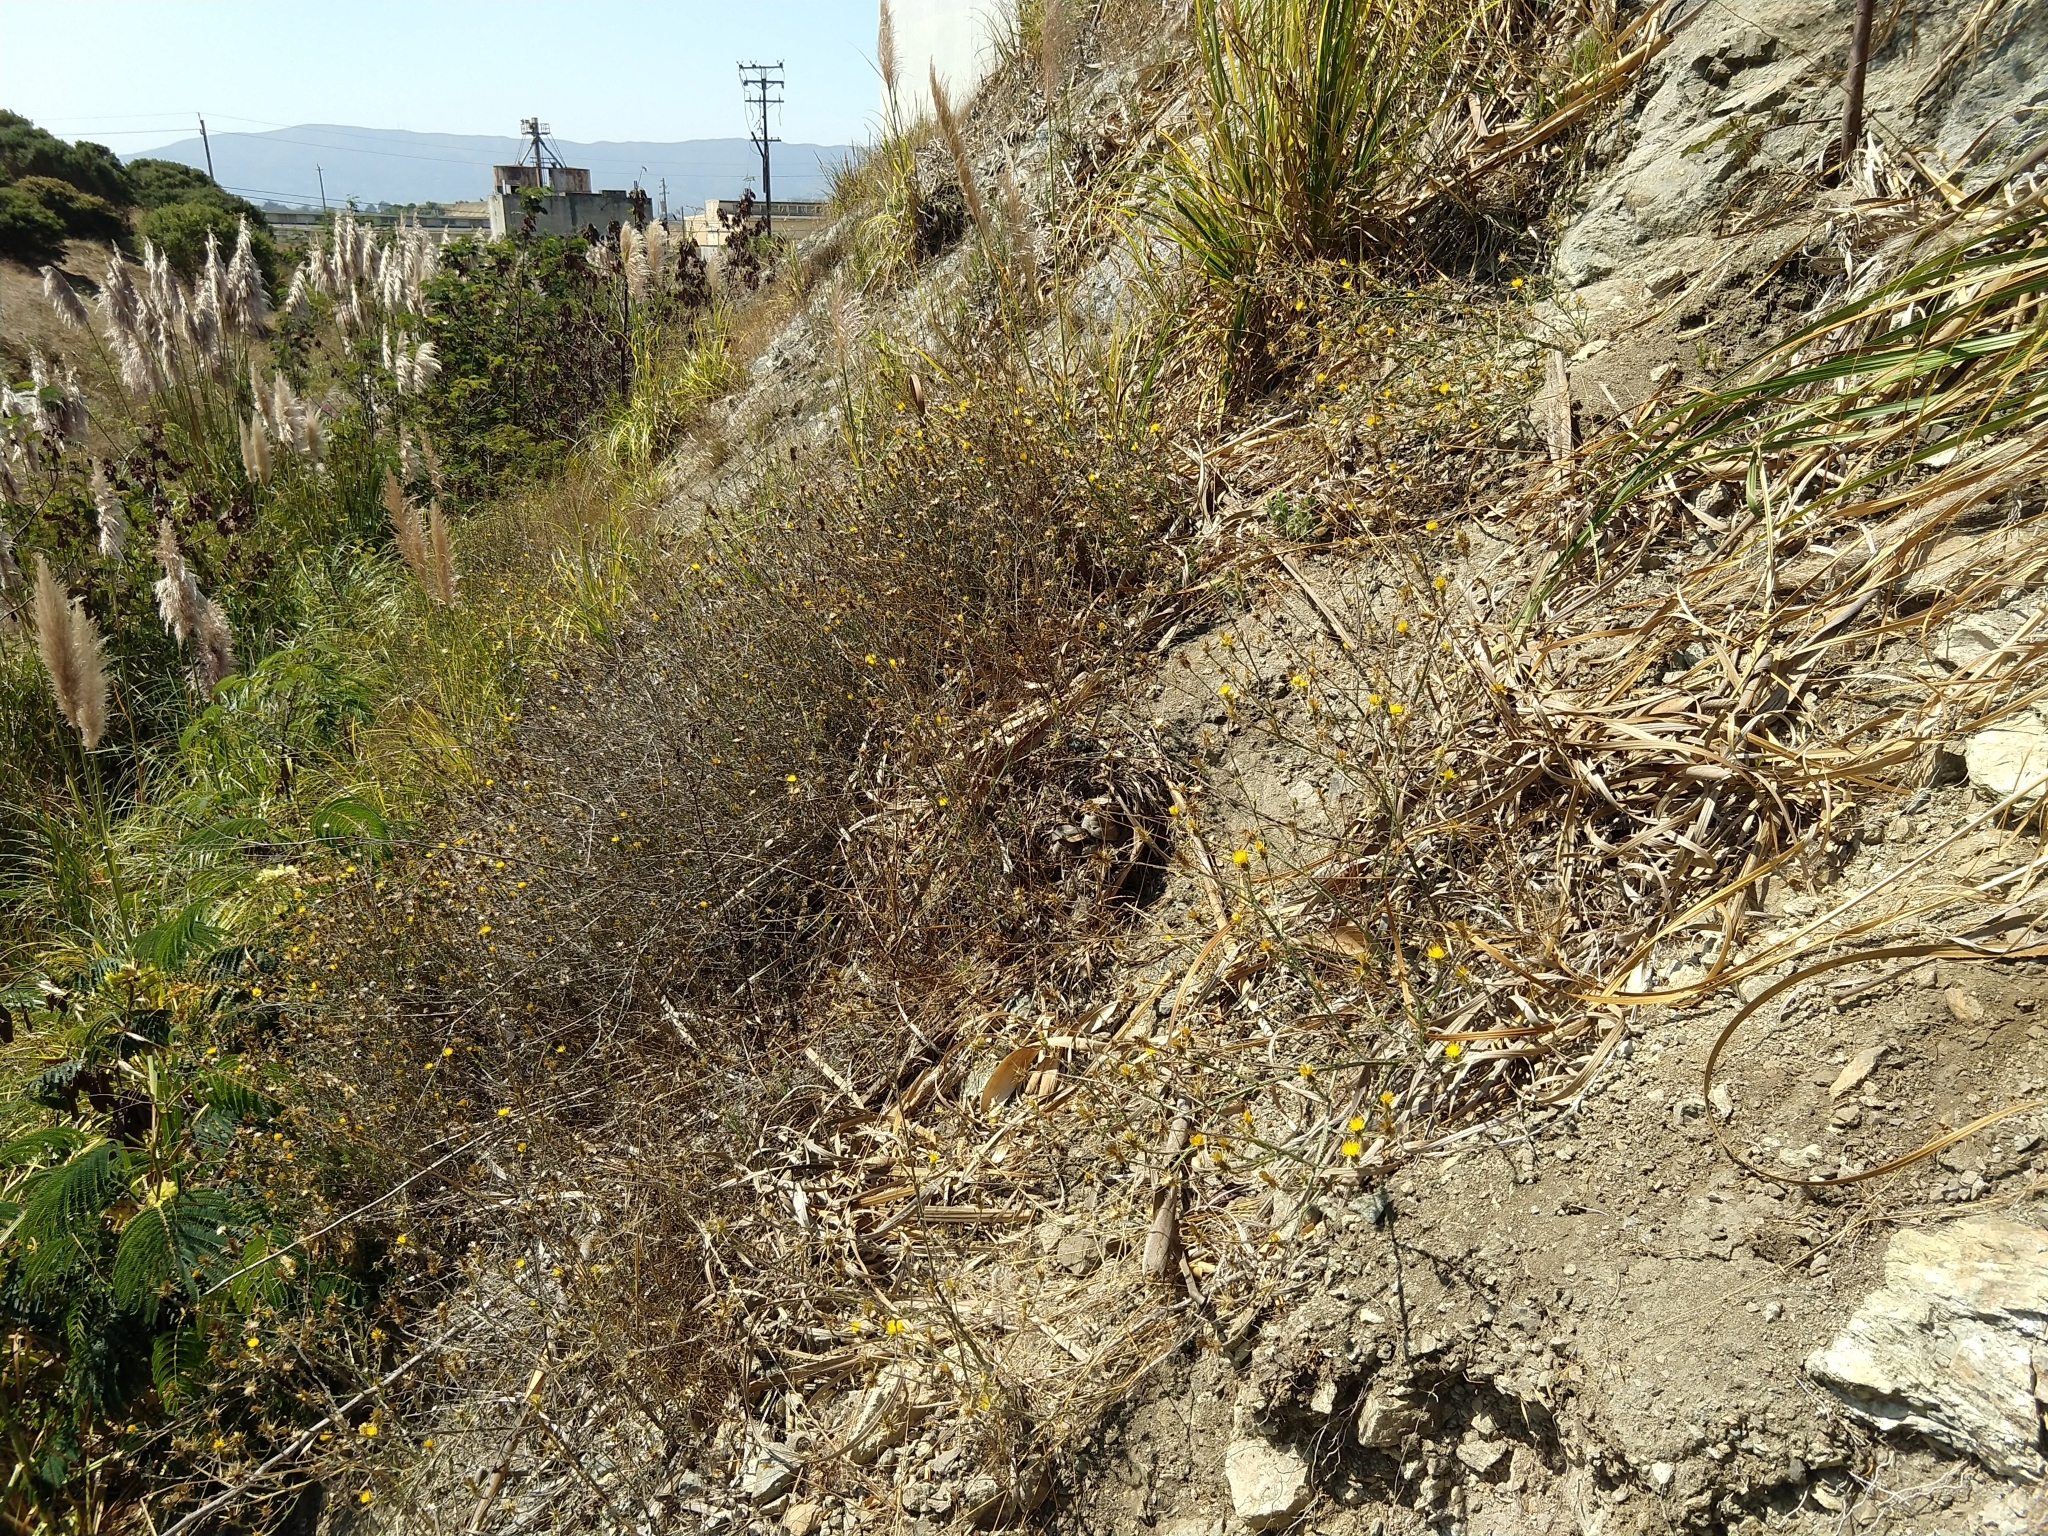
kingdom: Plantae
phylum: Tracheophyta
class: Magnoliopsida
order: Asterales
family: Asteraceae
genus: Centaurea
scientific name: Centaurea solstitialis
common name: Yellow star-thistle
